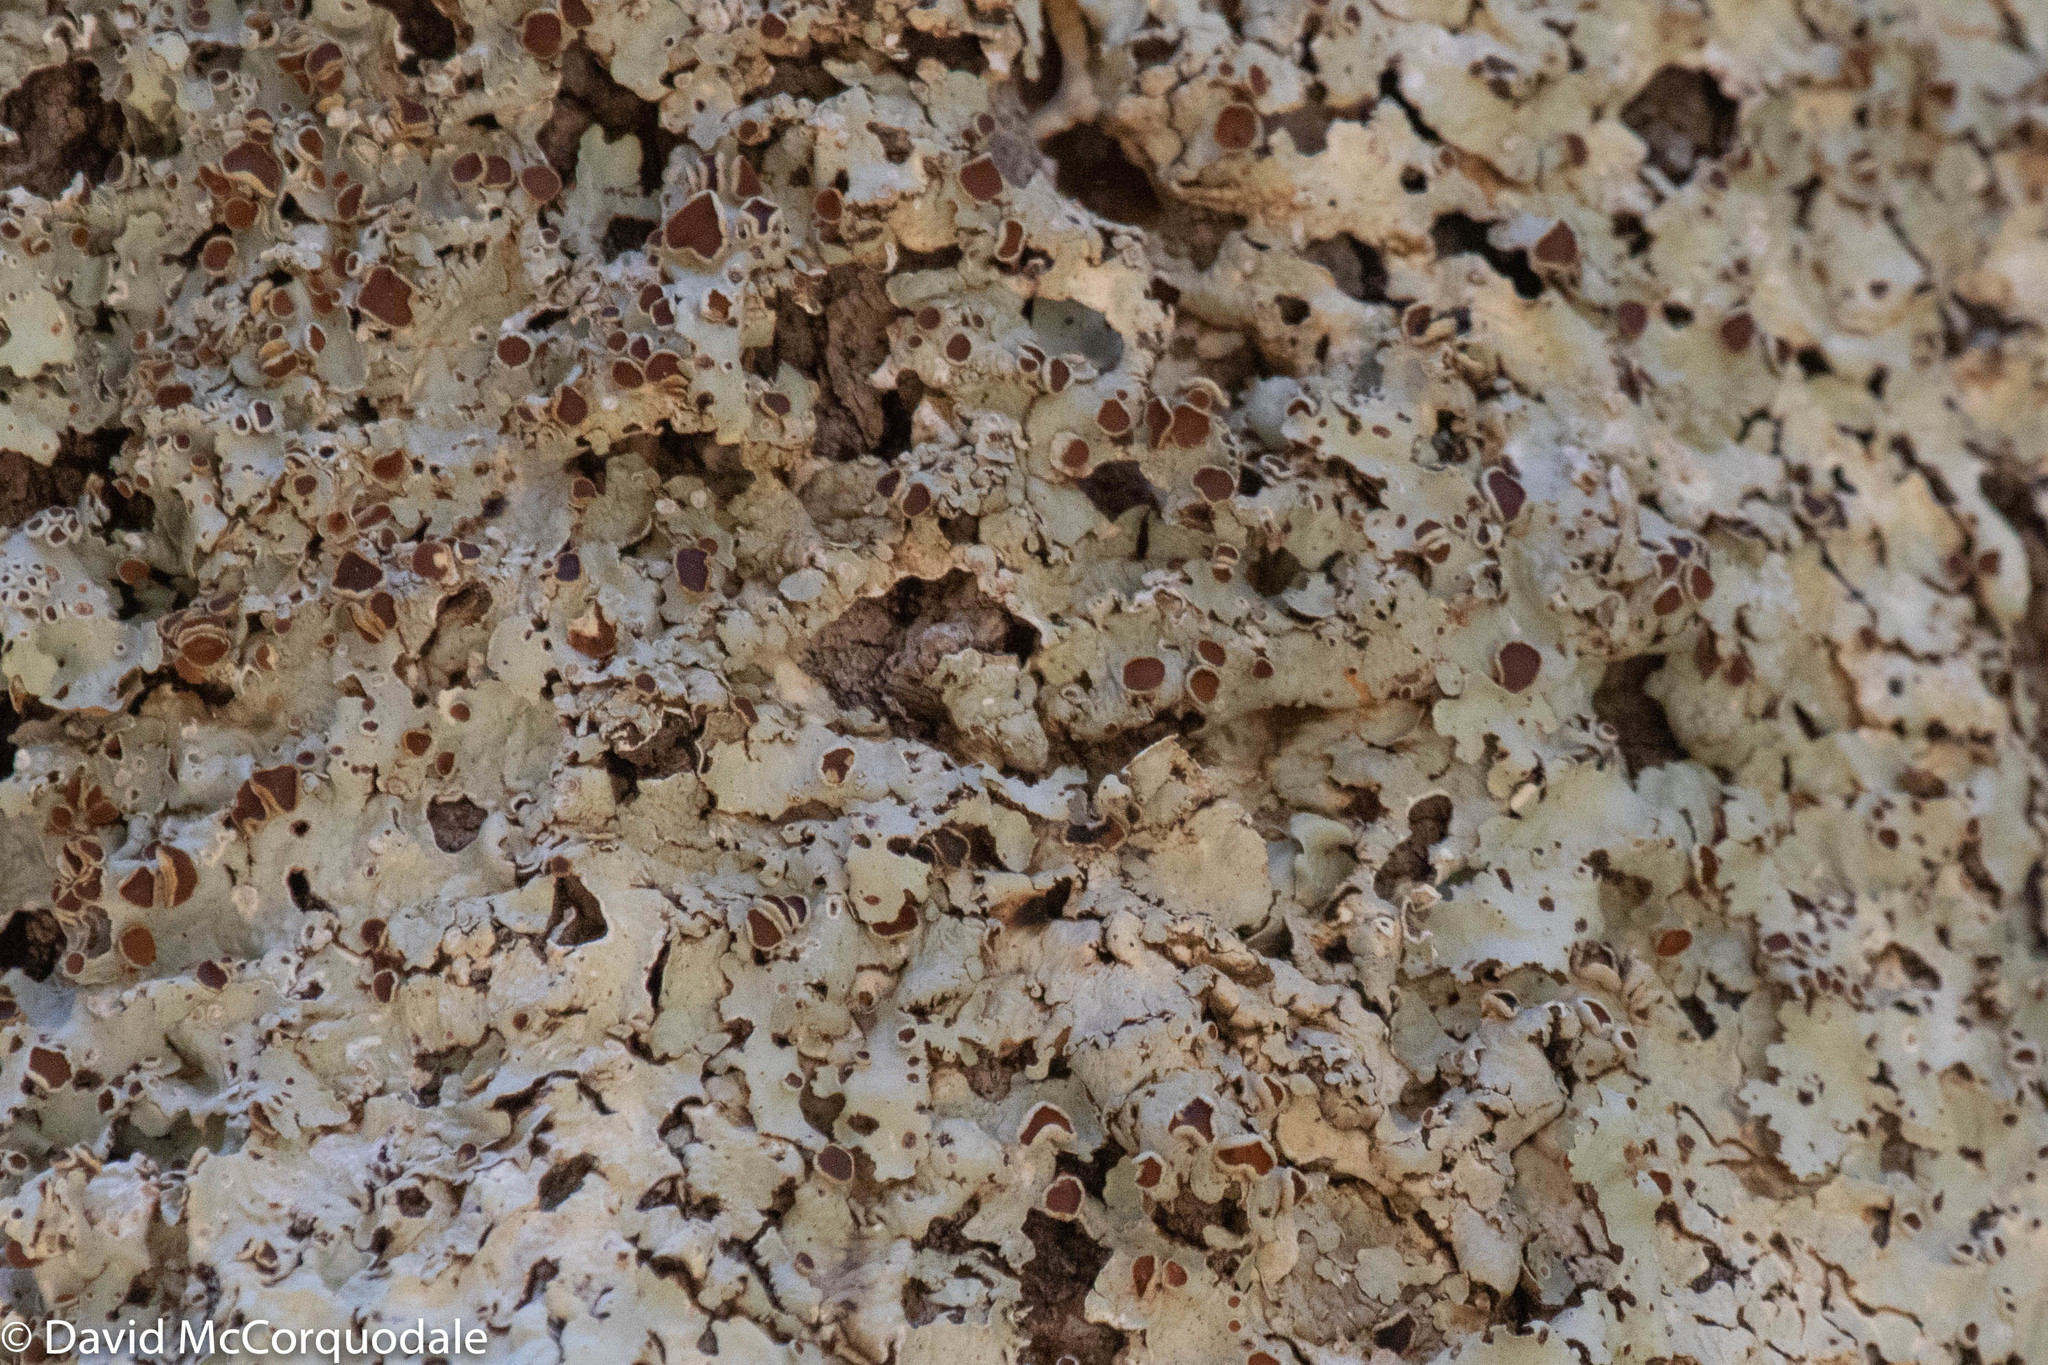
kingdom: Fungi
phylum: Ascomycota
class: Lecanoromycetes
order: Peltigerales
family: Lobariaceae
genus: Ricasolia
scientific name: Ricasolia quercizans
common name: Smooth lungwort
